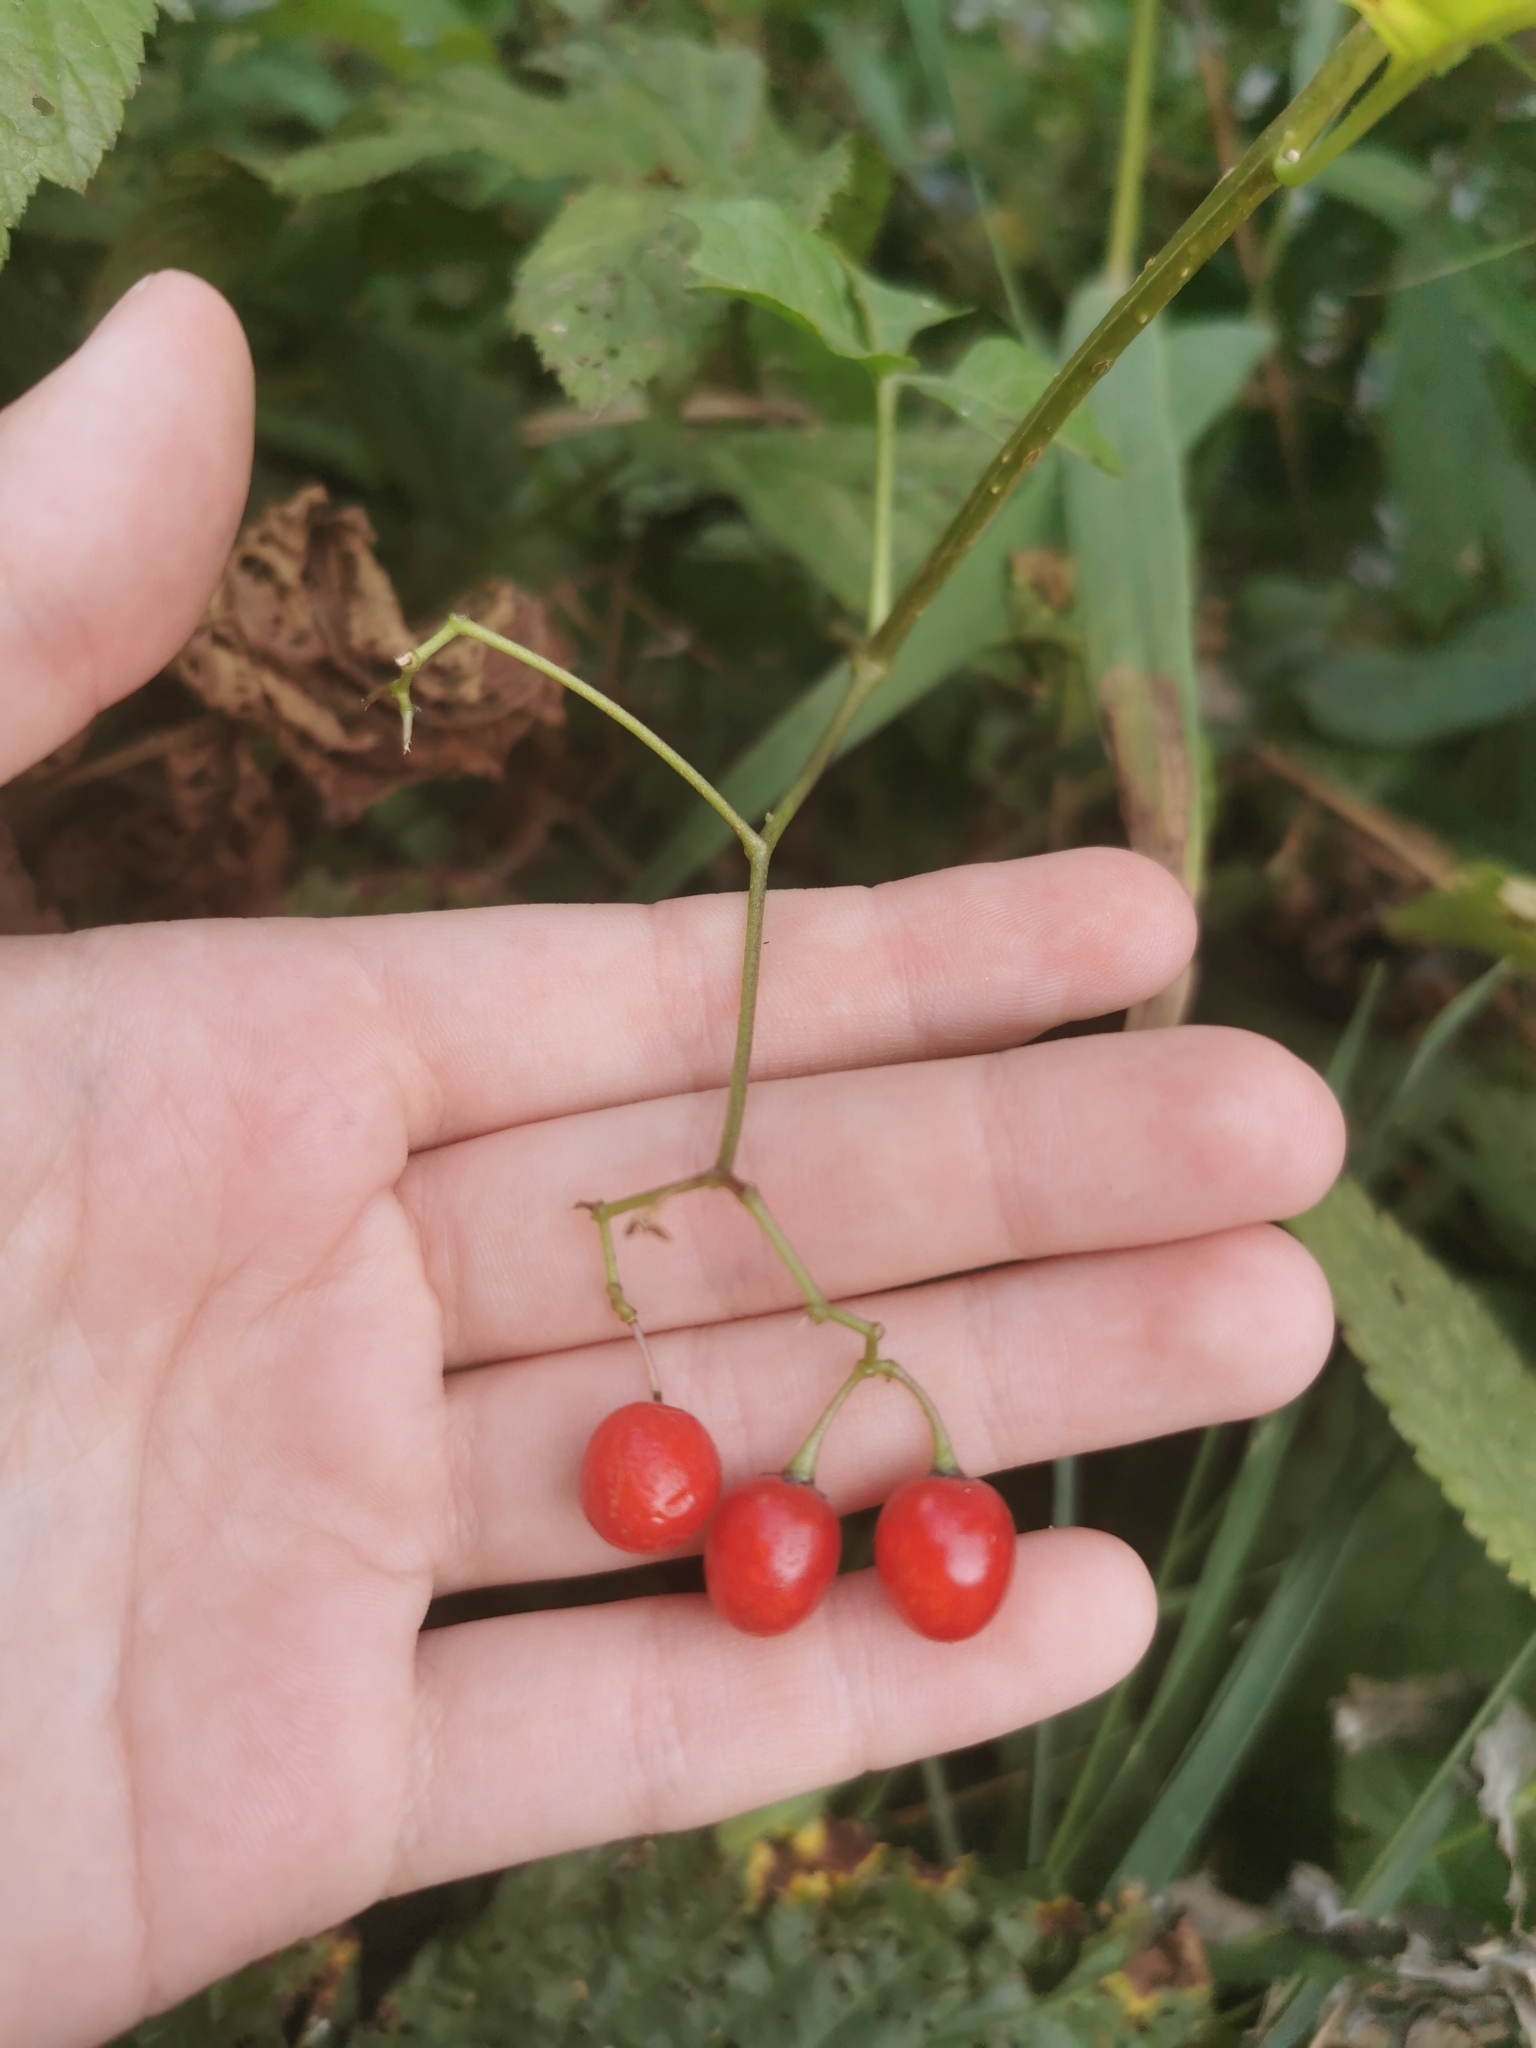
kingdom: Plantae
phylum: Tracheophyta
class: Magnoliopsida
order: Solanales
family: Solanaceae
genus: Solanum
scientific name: Solanum dulcamara
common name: Climbing nightshade
